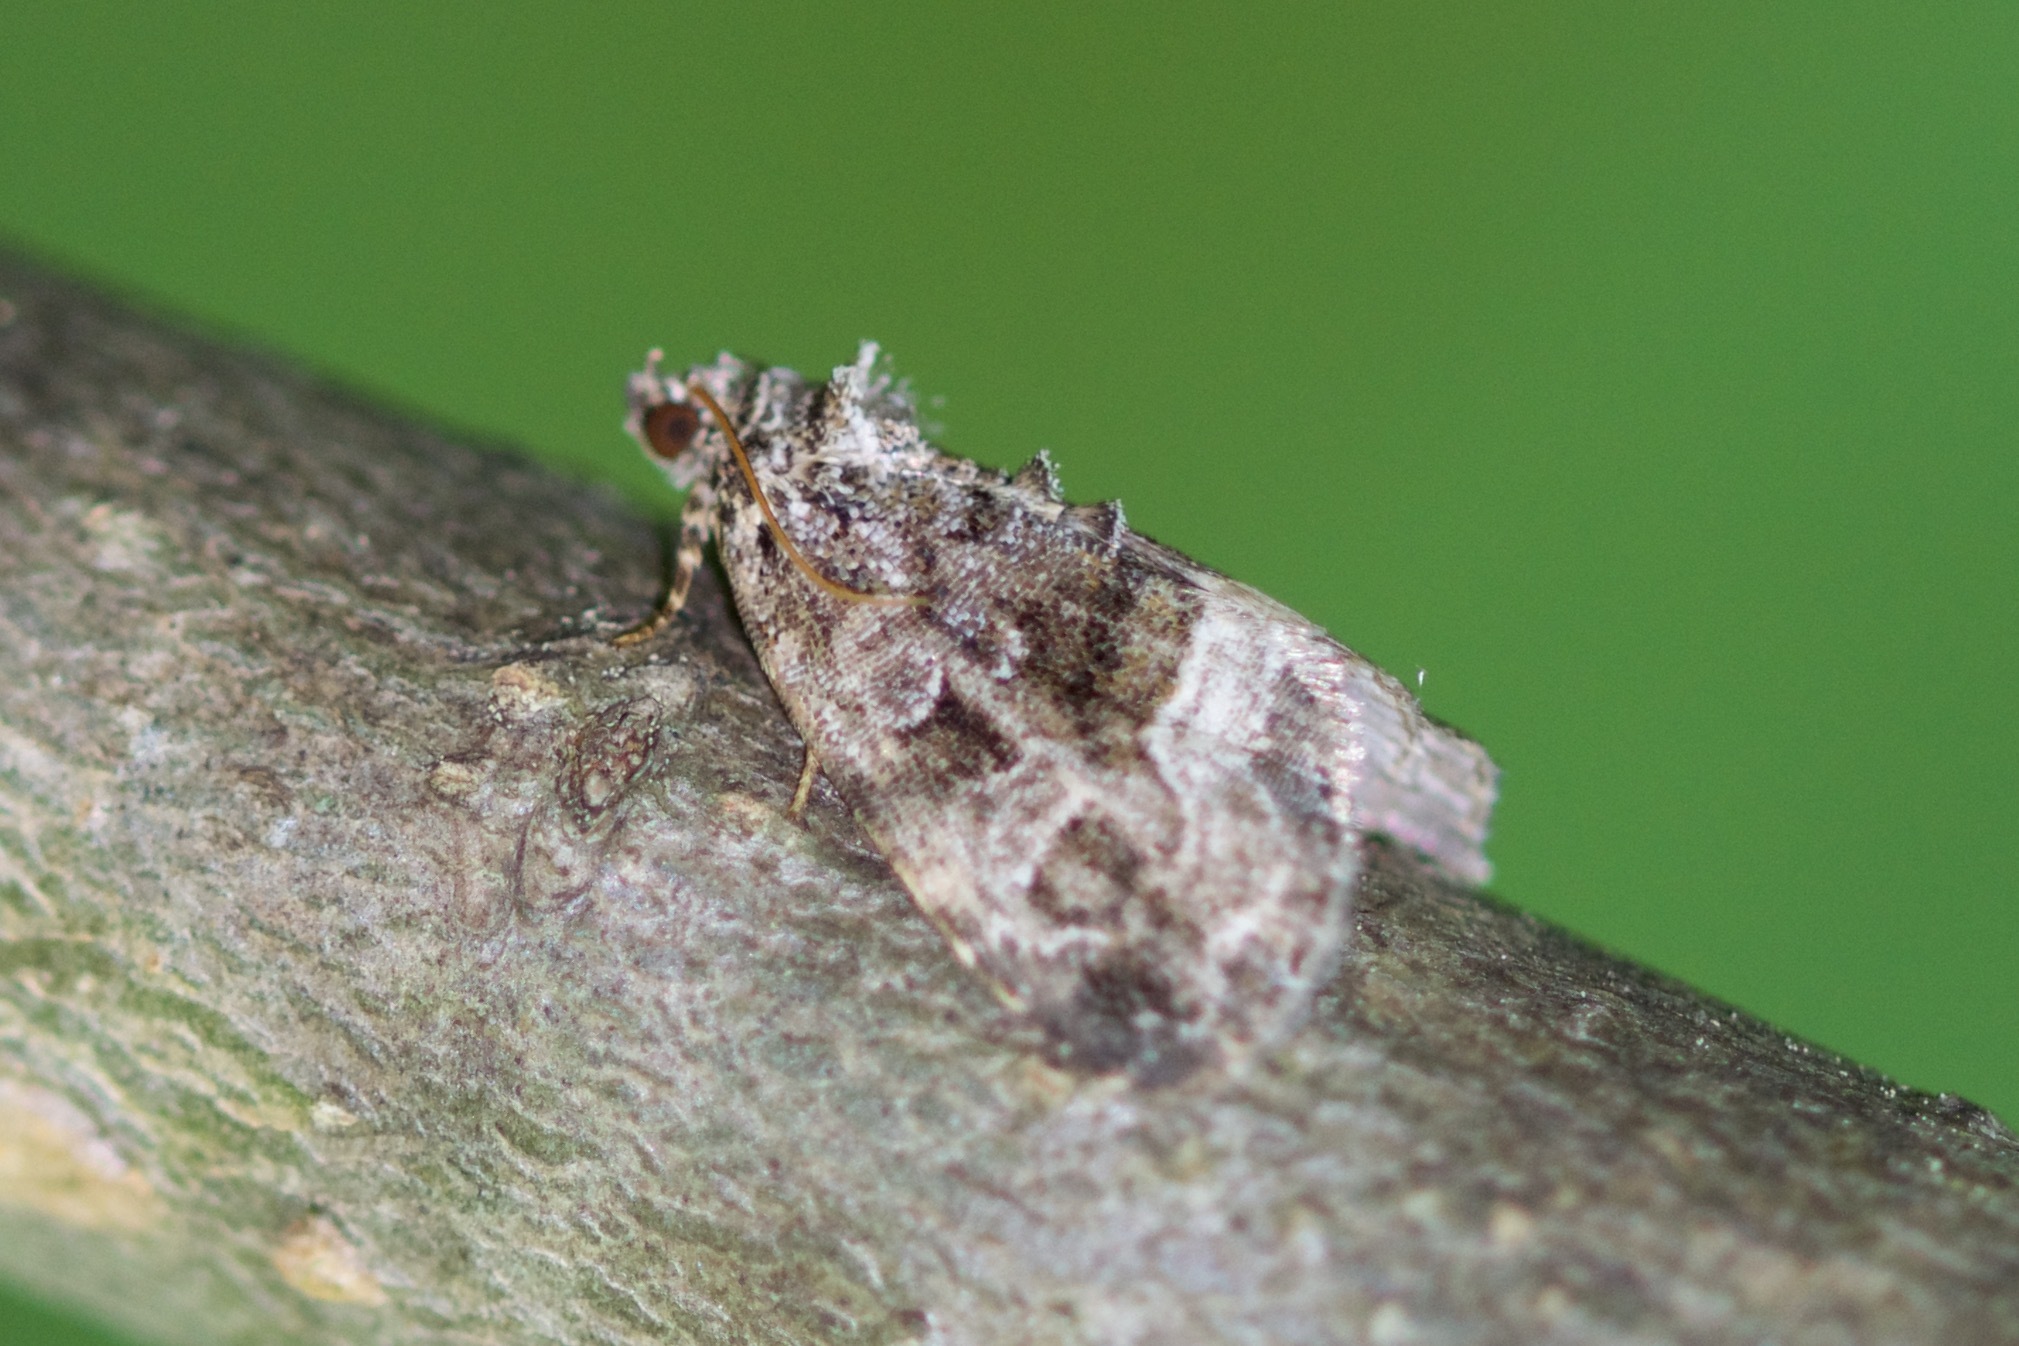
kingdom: Animalia
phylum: Arthropoda
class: Insecta
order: Lepidoptera
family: Noctuidae
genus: Protodeltote
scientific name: Protodeltote muscosula
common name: Large mossy glyph
